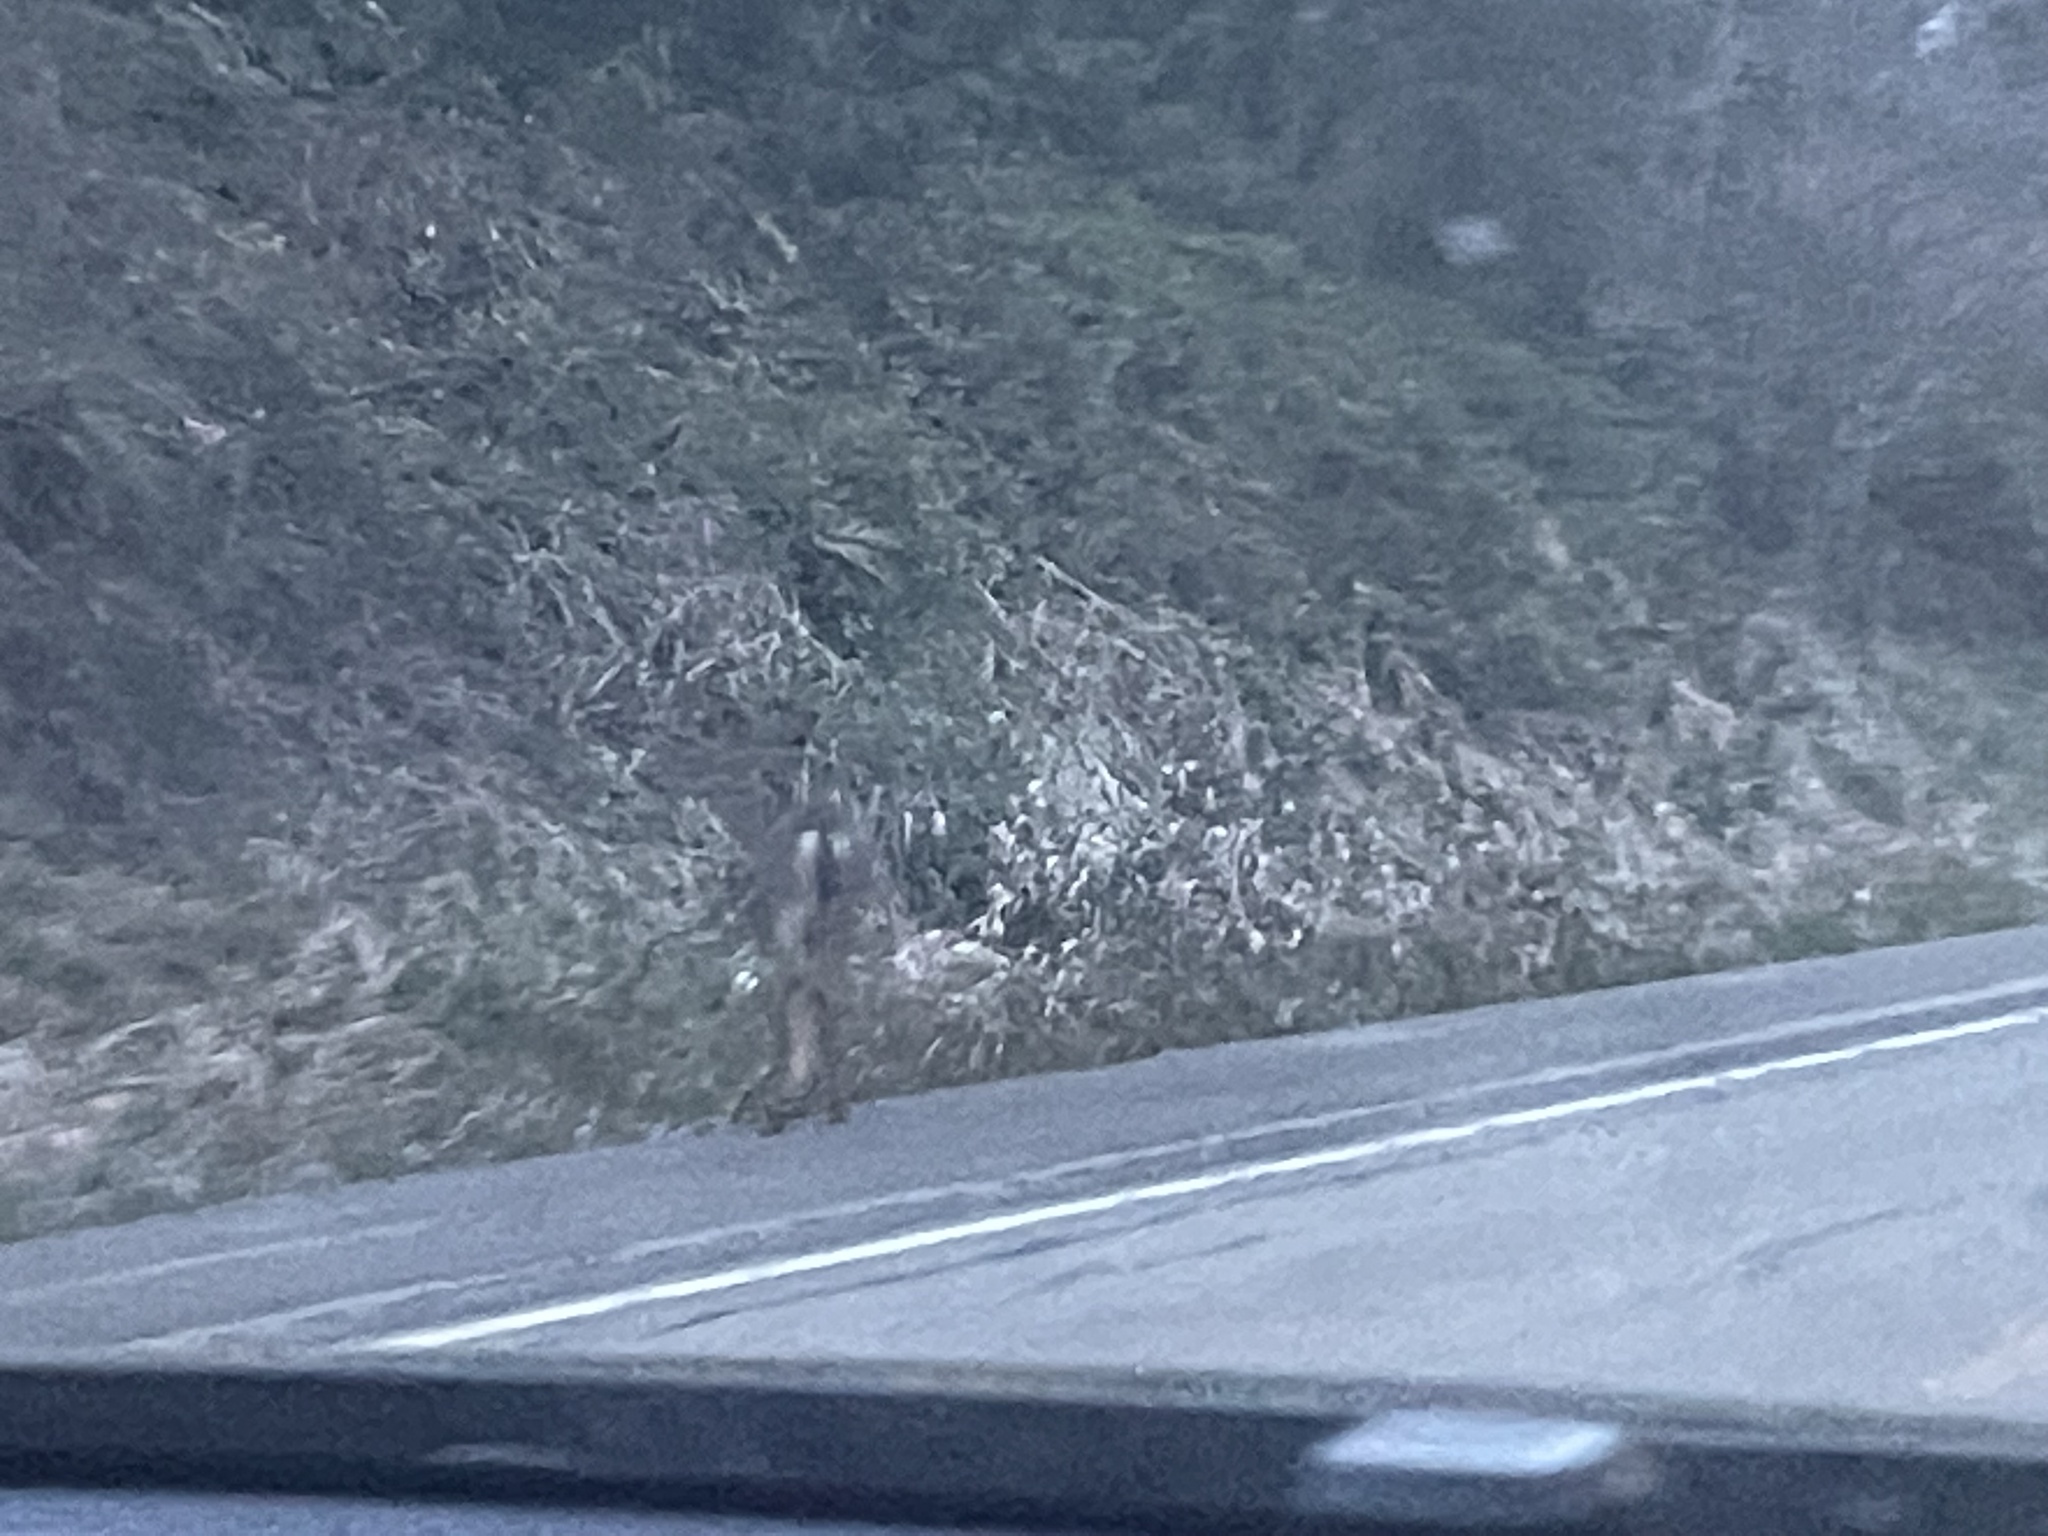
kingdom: Animalia
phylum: Chordata
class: Mammalia
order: Artiodactyla
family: Cervidae
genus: Odocoileus
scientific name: Odocoileus hemionus
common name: Mule deer
